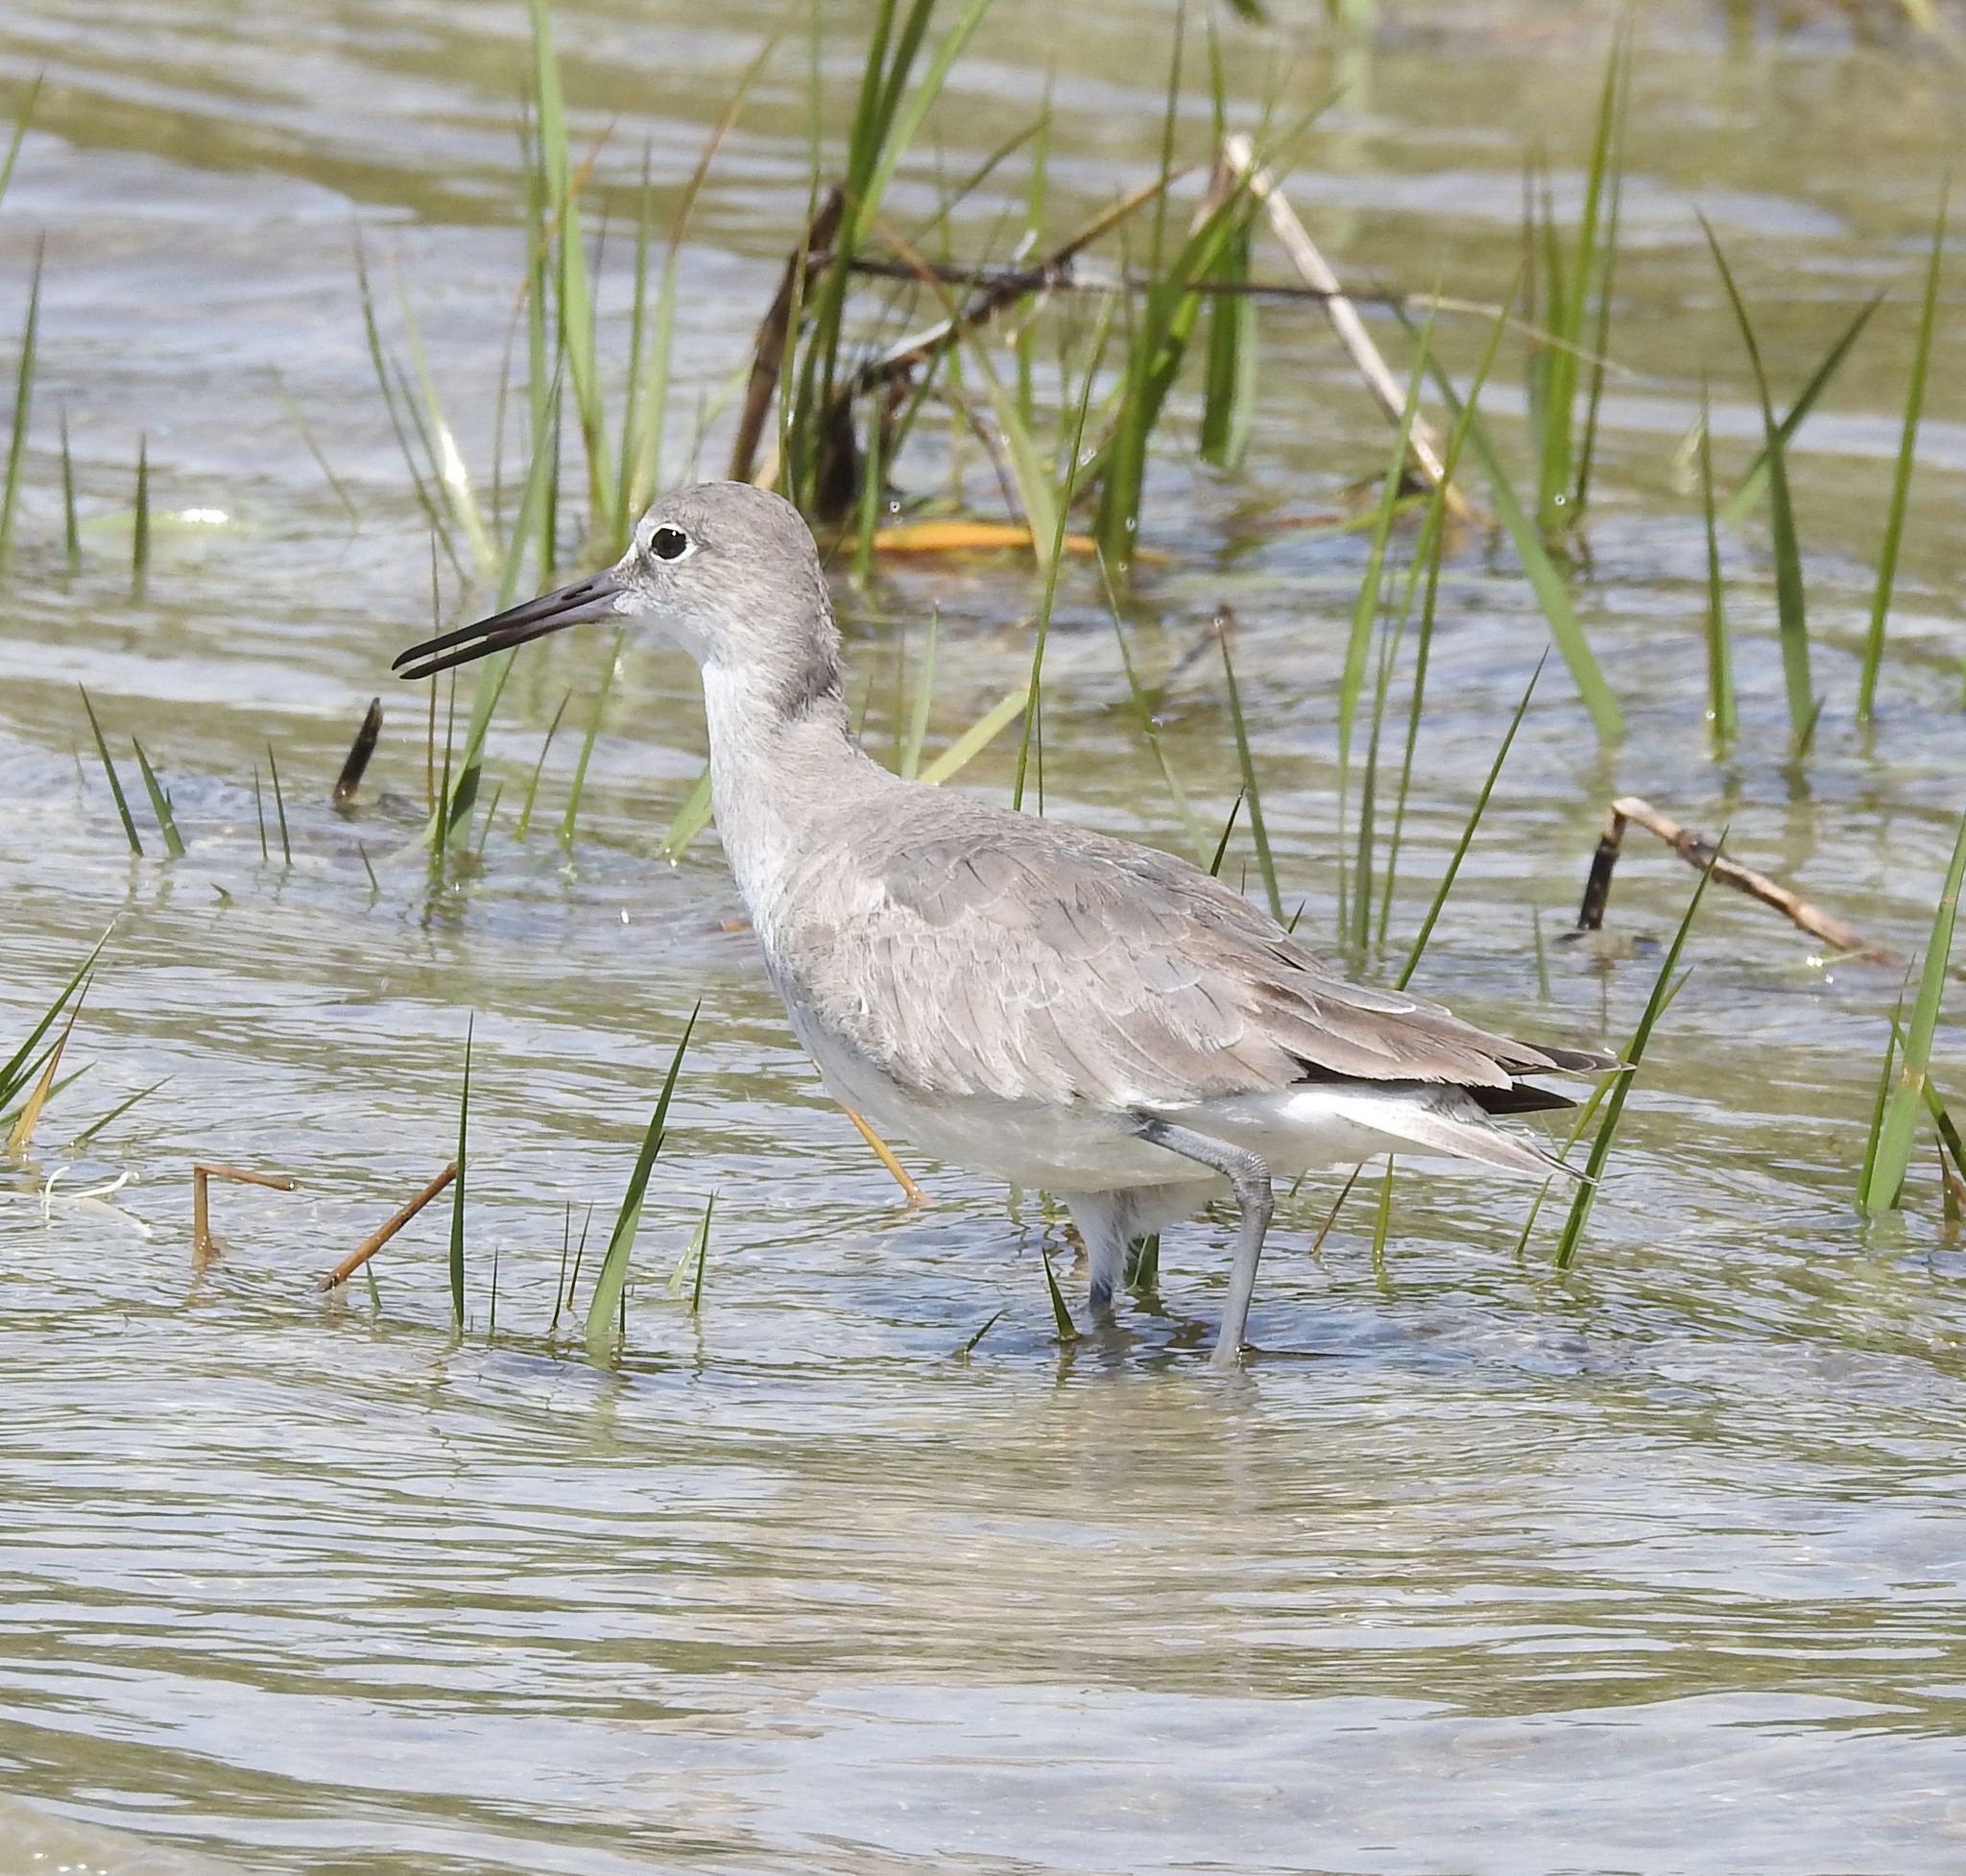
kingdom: Animalia
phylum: Chordata
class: Aves
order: Charadriiformes
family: Scolopacidae
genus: Tringa
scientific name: Tringa semipalmata
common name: Willet
